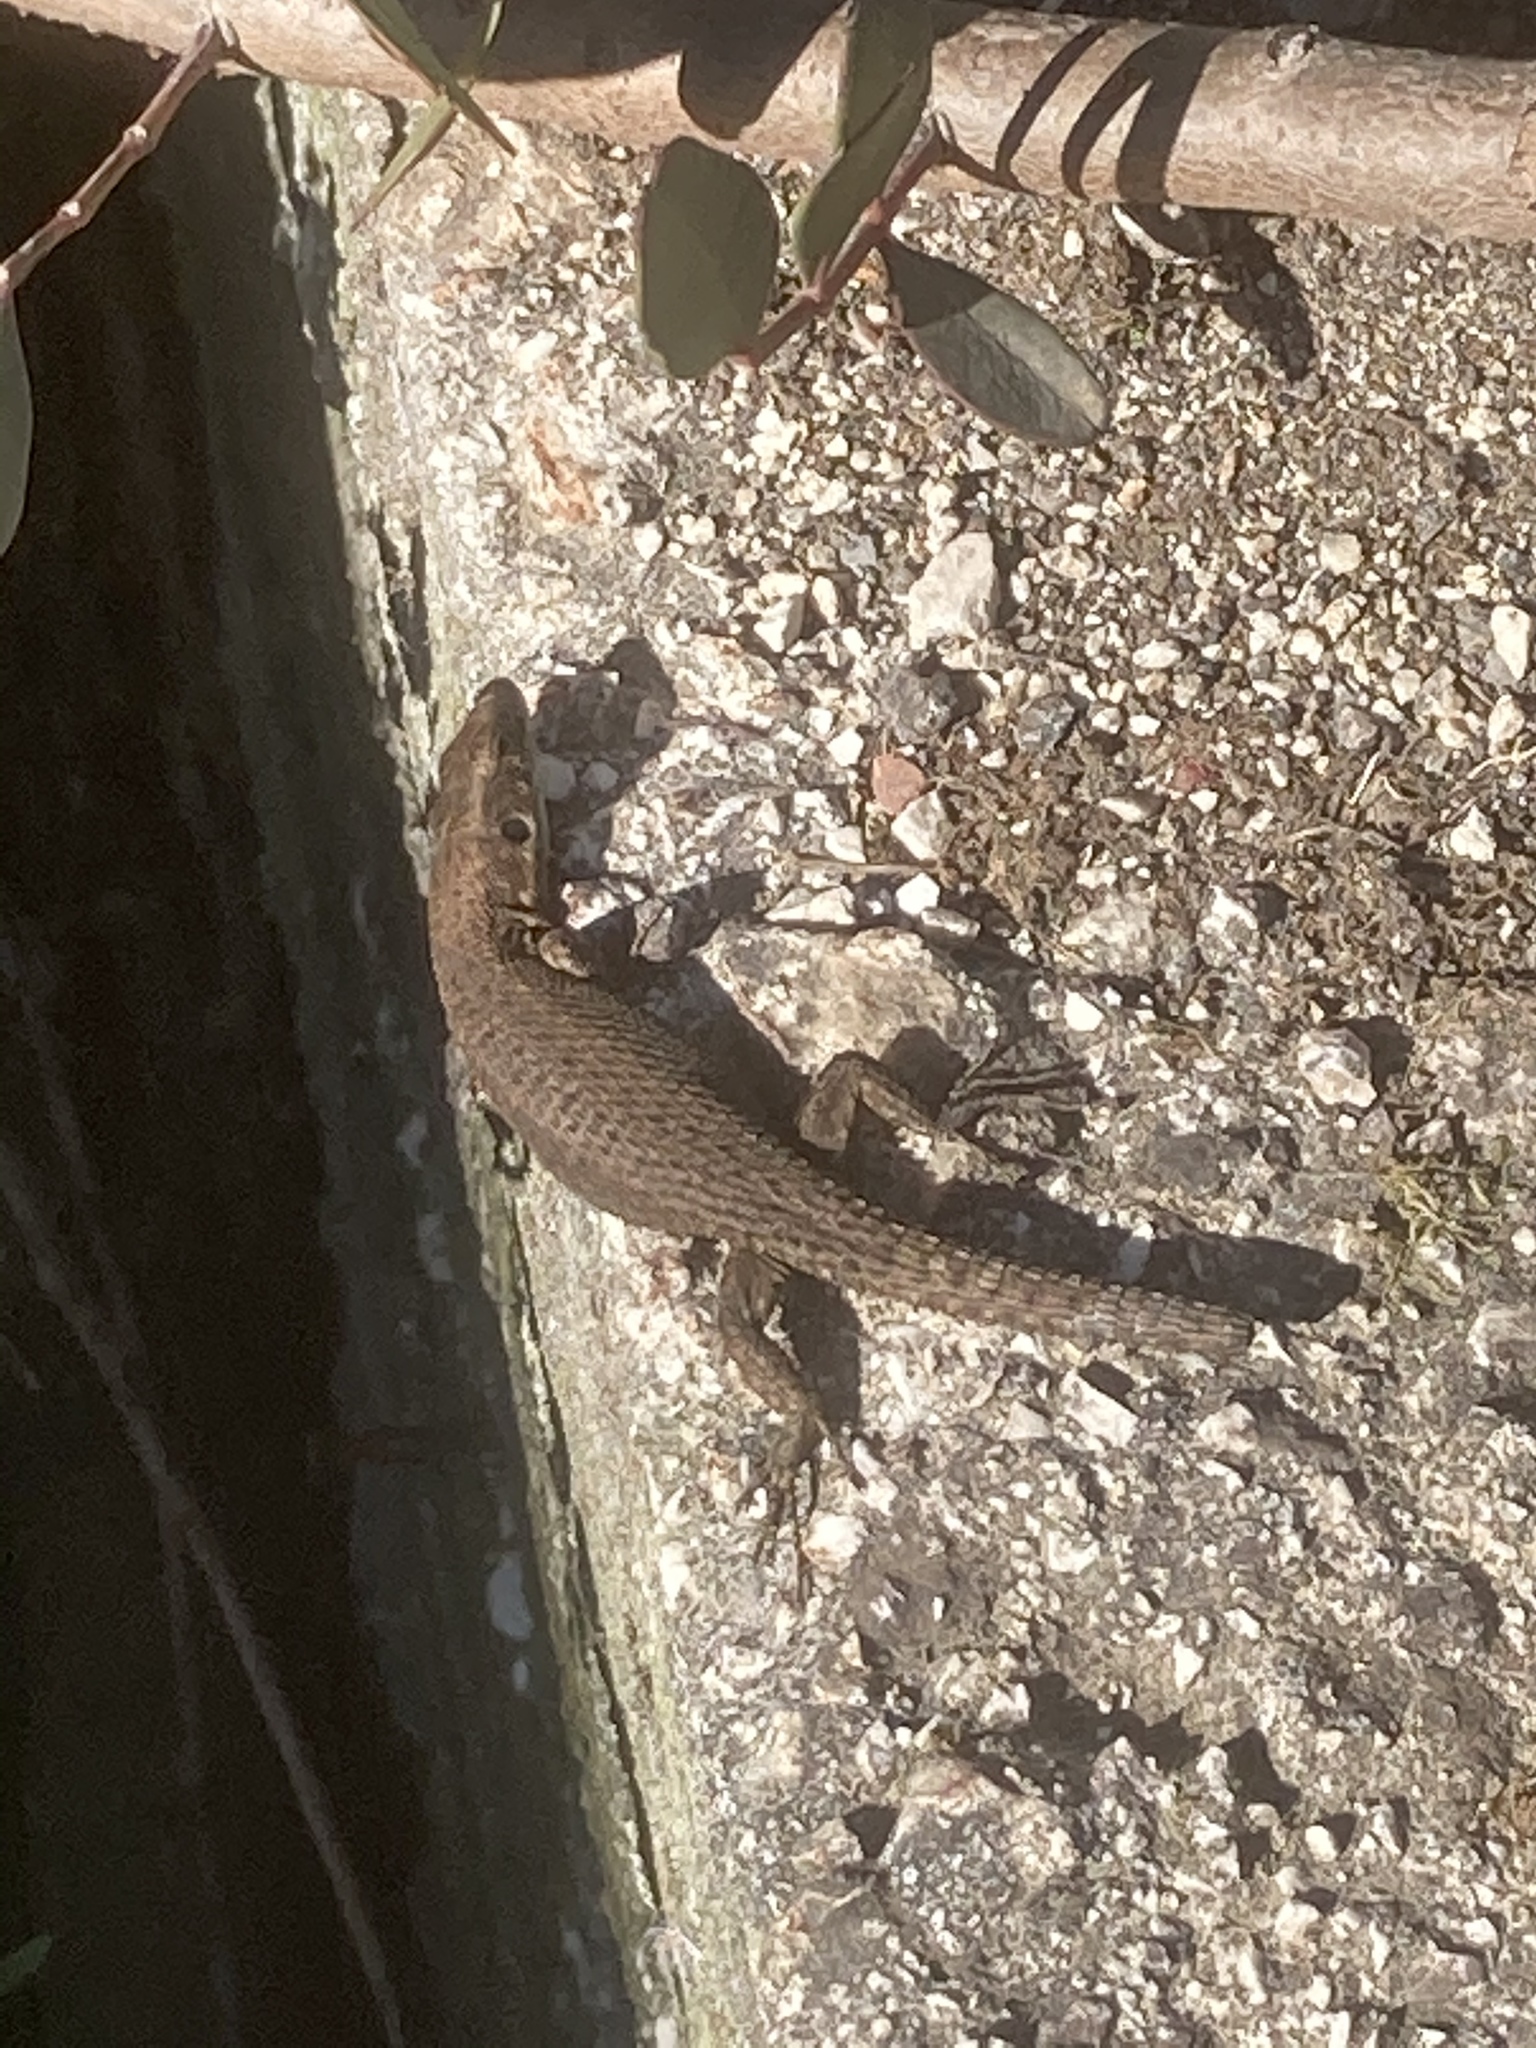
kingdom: Animalia
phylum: Chordata
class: Squamata
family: Lacertidae
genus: Algyroides
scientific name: Algyroides nigropunctatus
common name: Blue-throated keeled lizard
